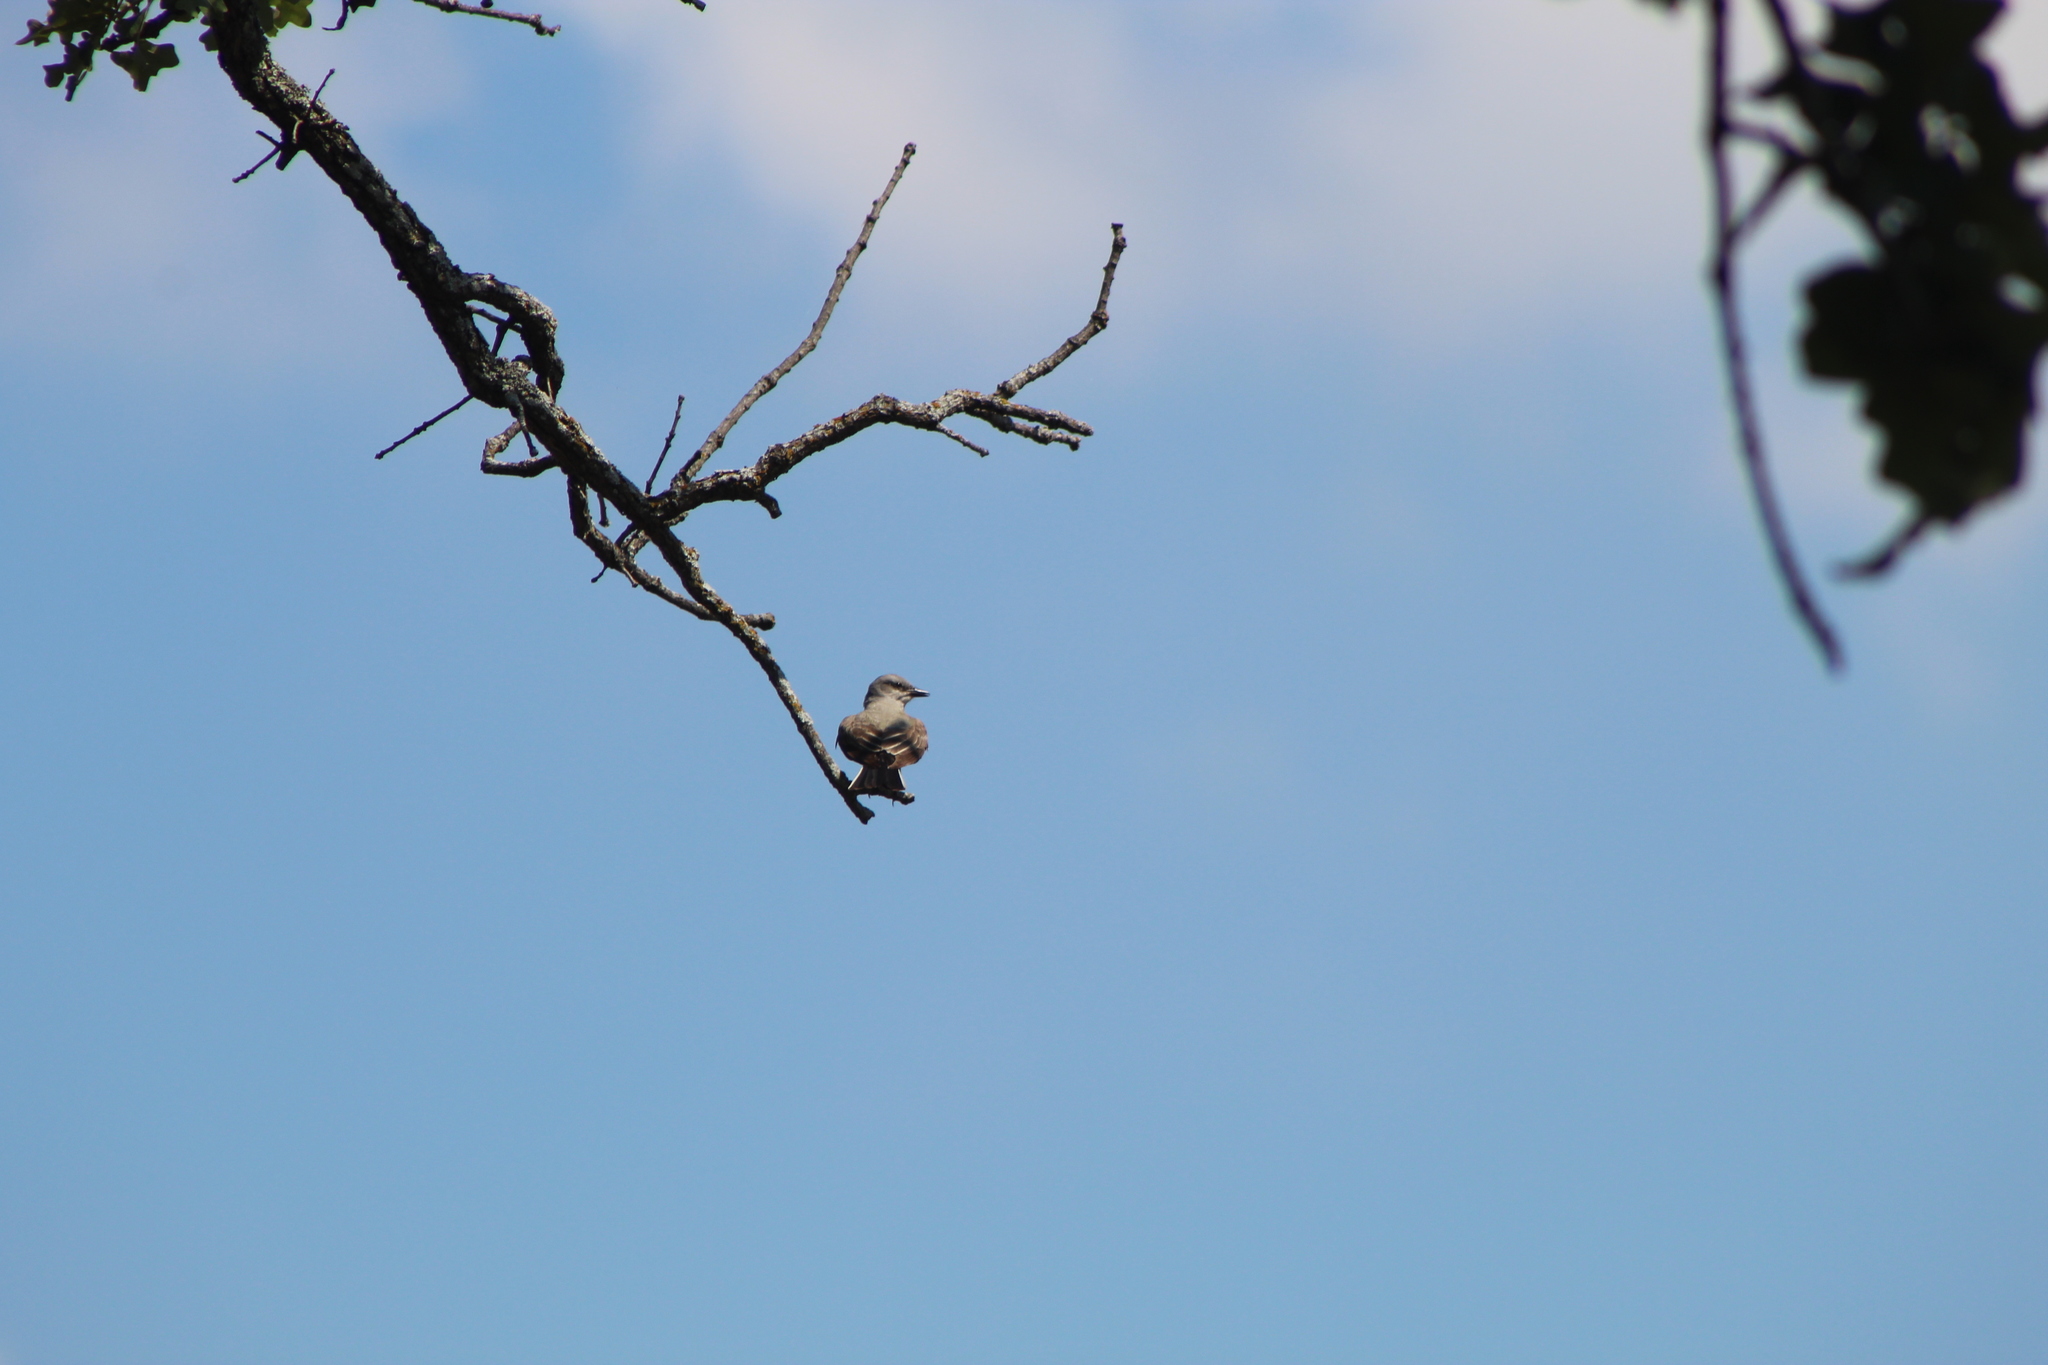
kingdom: Animalia
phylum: Chordata
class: Aves
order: Passeriformes
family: Tyrannidae
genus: Tyrannus
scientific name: Tyrannus verticalis
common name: Western kingbird
